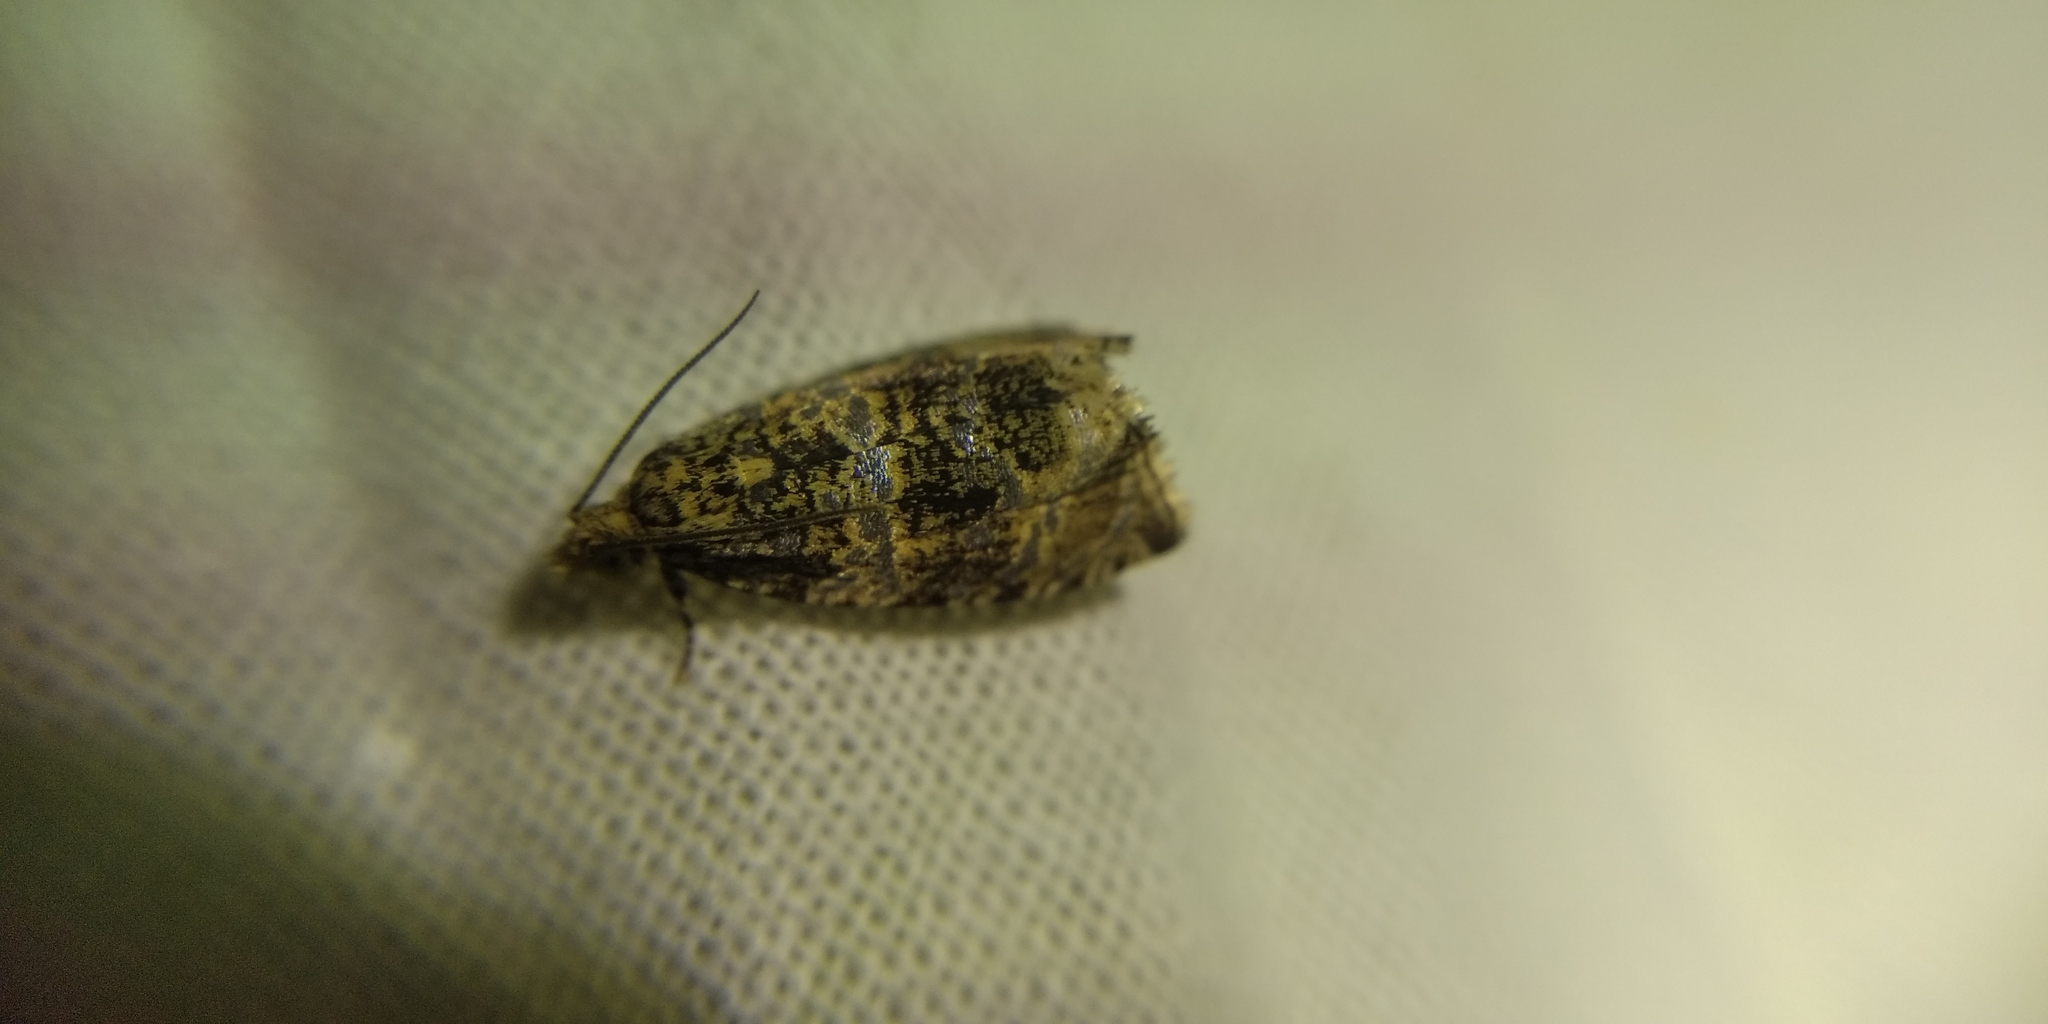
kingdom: Animalia
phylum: Arthropoda
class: Insecta
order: Lepidoptera
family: Tortricidae
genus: Syricoris
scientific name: Syricoris lacunana
